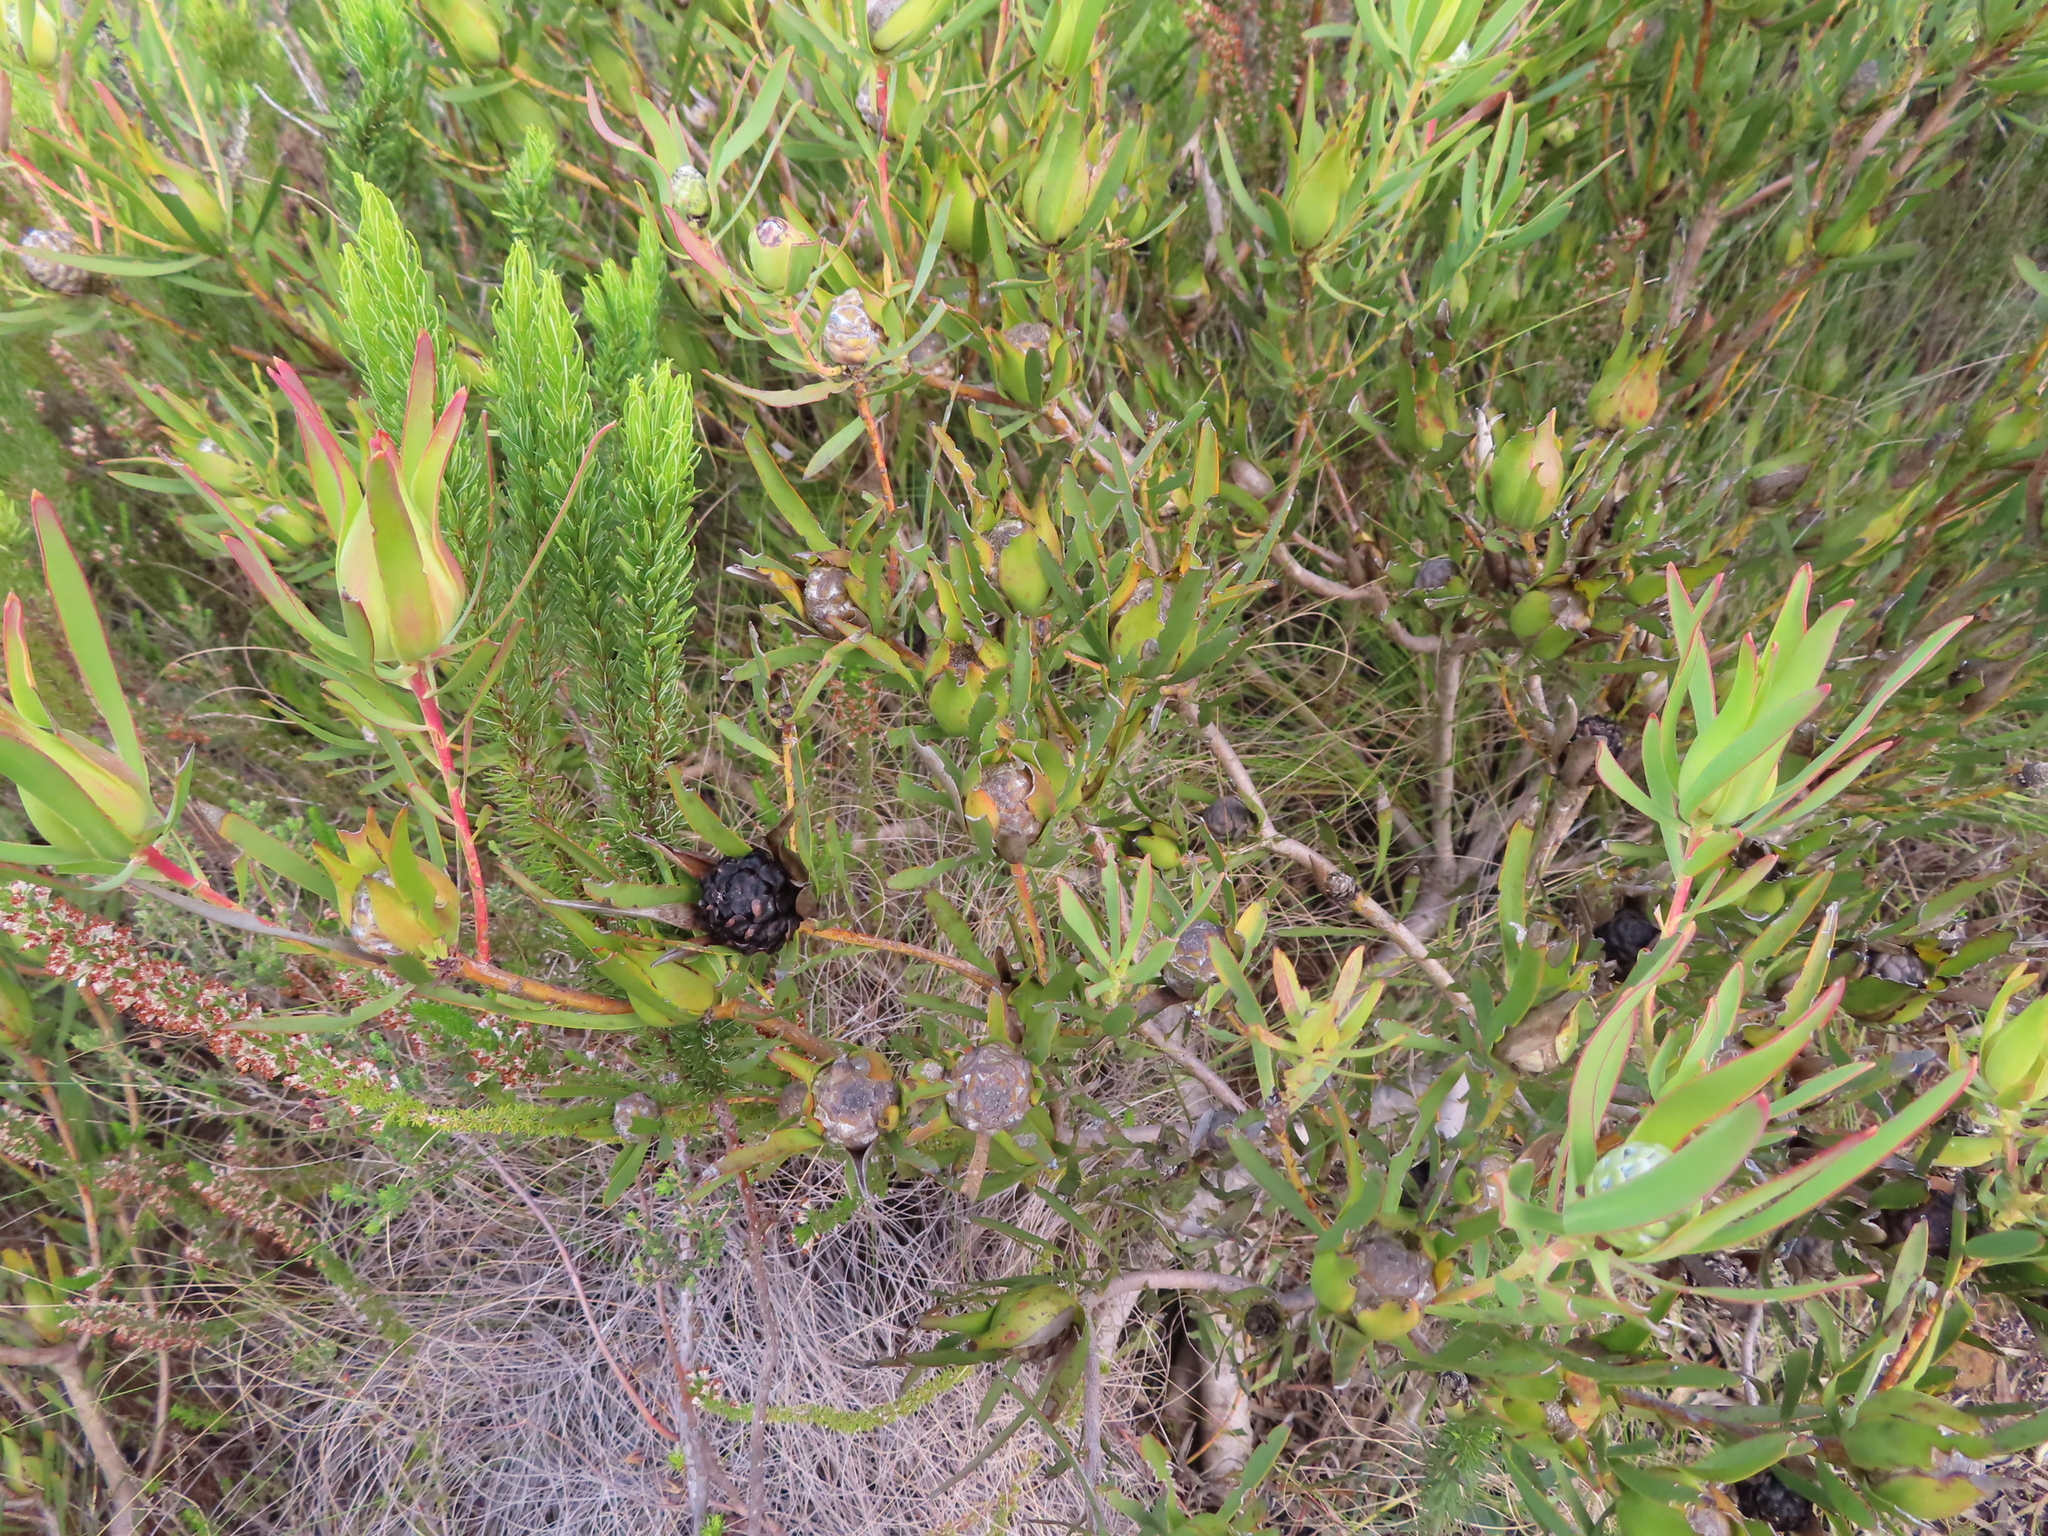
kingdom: Plantae
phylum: Tracheophyta
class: Magnoliopsida
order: Proteales
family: Proteaceae
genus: Leucadendron
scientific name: Leucadendron salignum
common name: Common sunshine conebush
